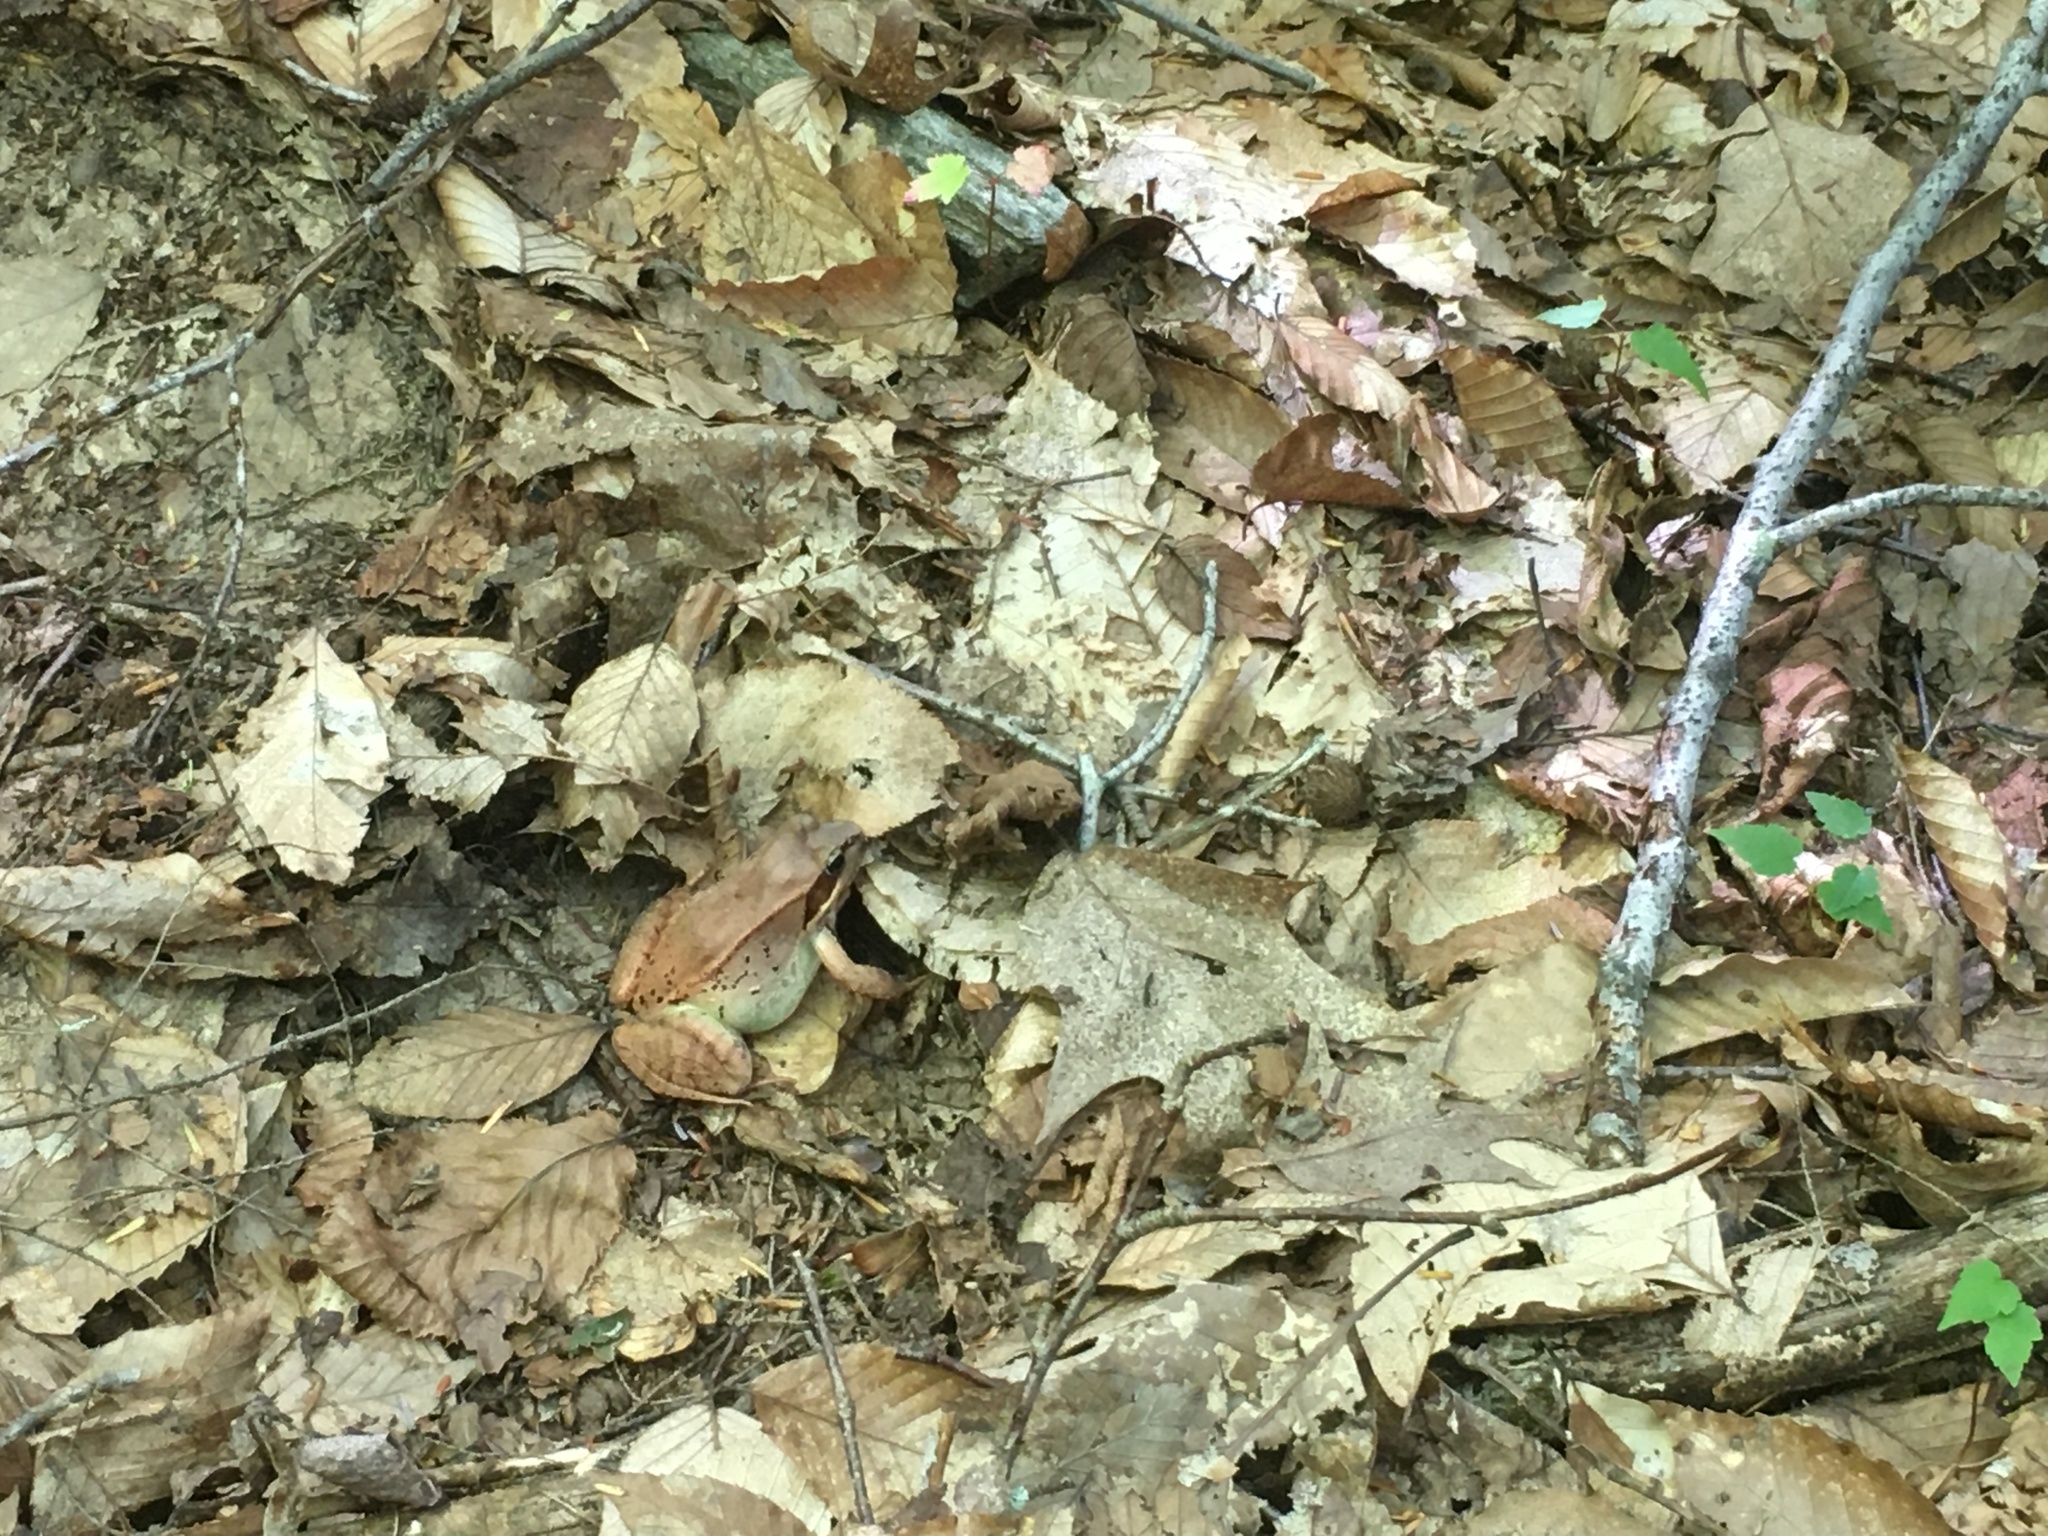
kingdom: Animalia
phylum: Chordata
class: Amphibia
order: Anura
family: Ranidae
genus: Lithobates
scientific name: Lithobates sylvaticus
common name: Wood frog
